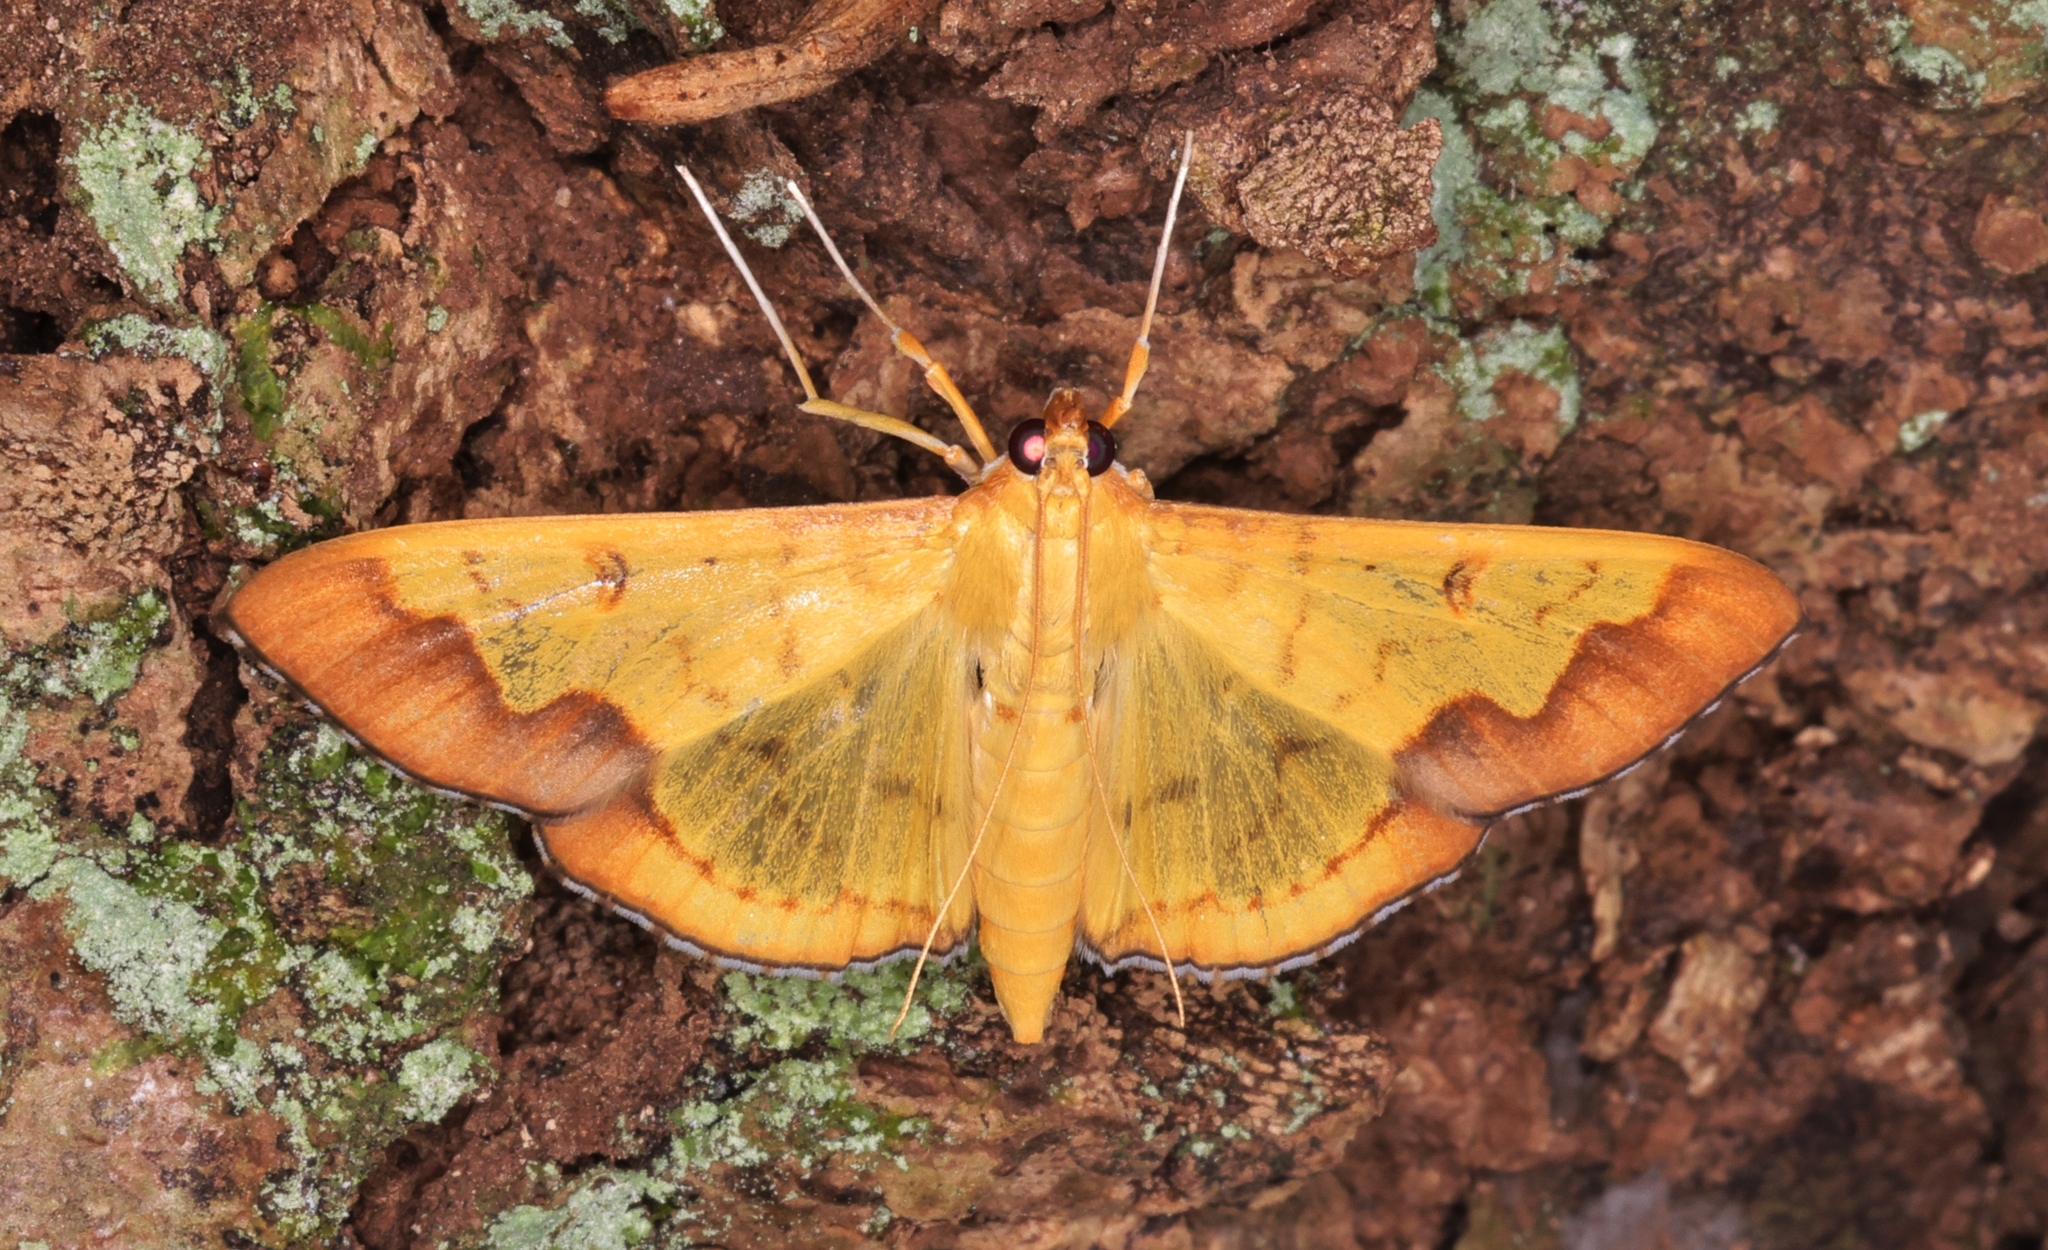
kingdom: Animalia
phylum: Arthropoda
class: Insecta
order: Lepidoptera
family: Crambidae
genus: Meroctena
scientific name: Meroctena tullalis
